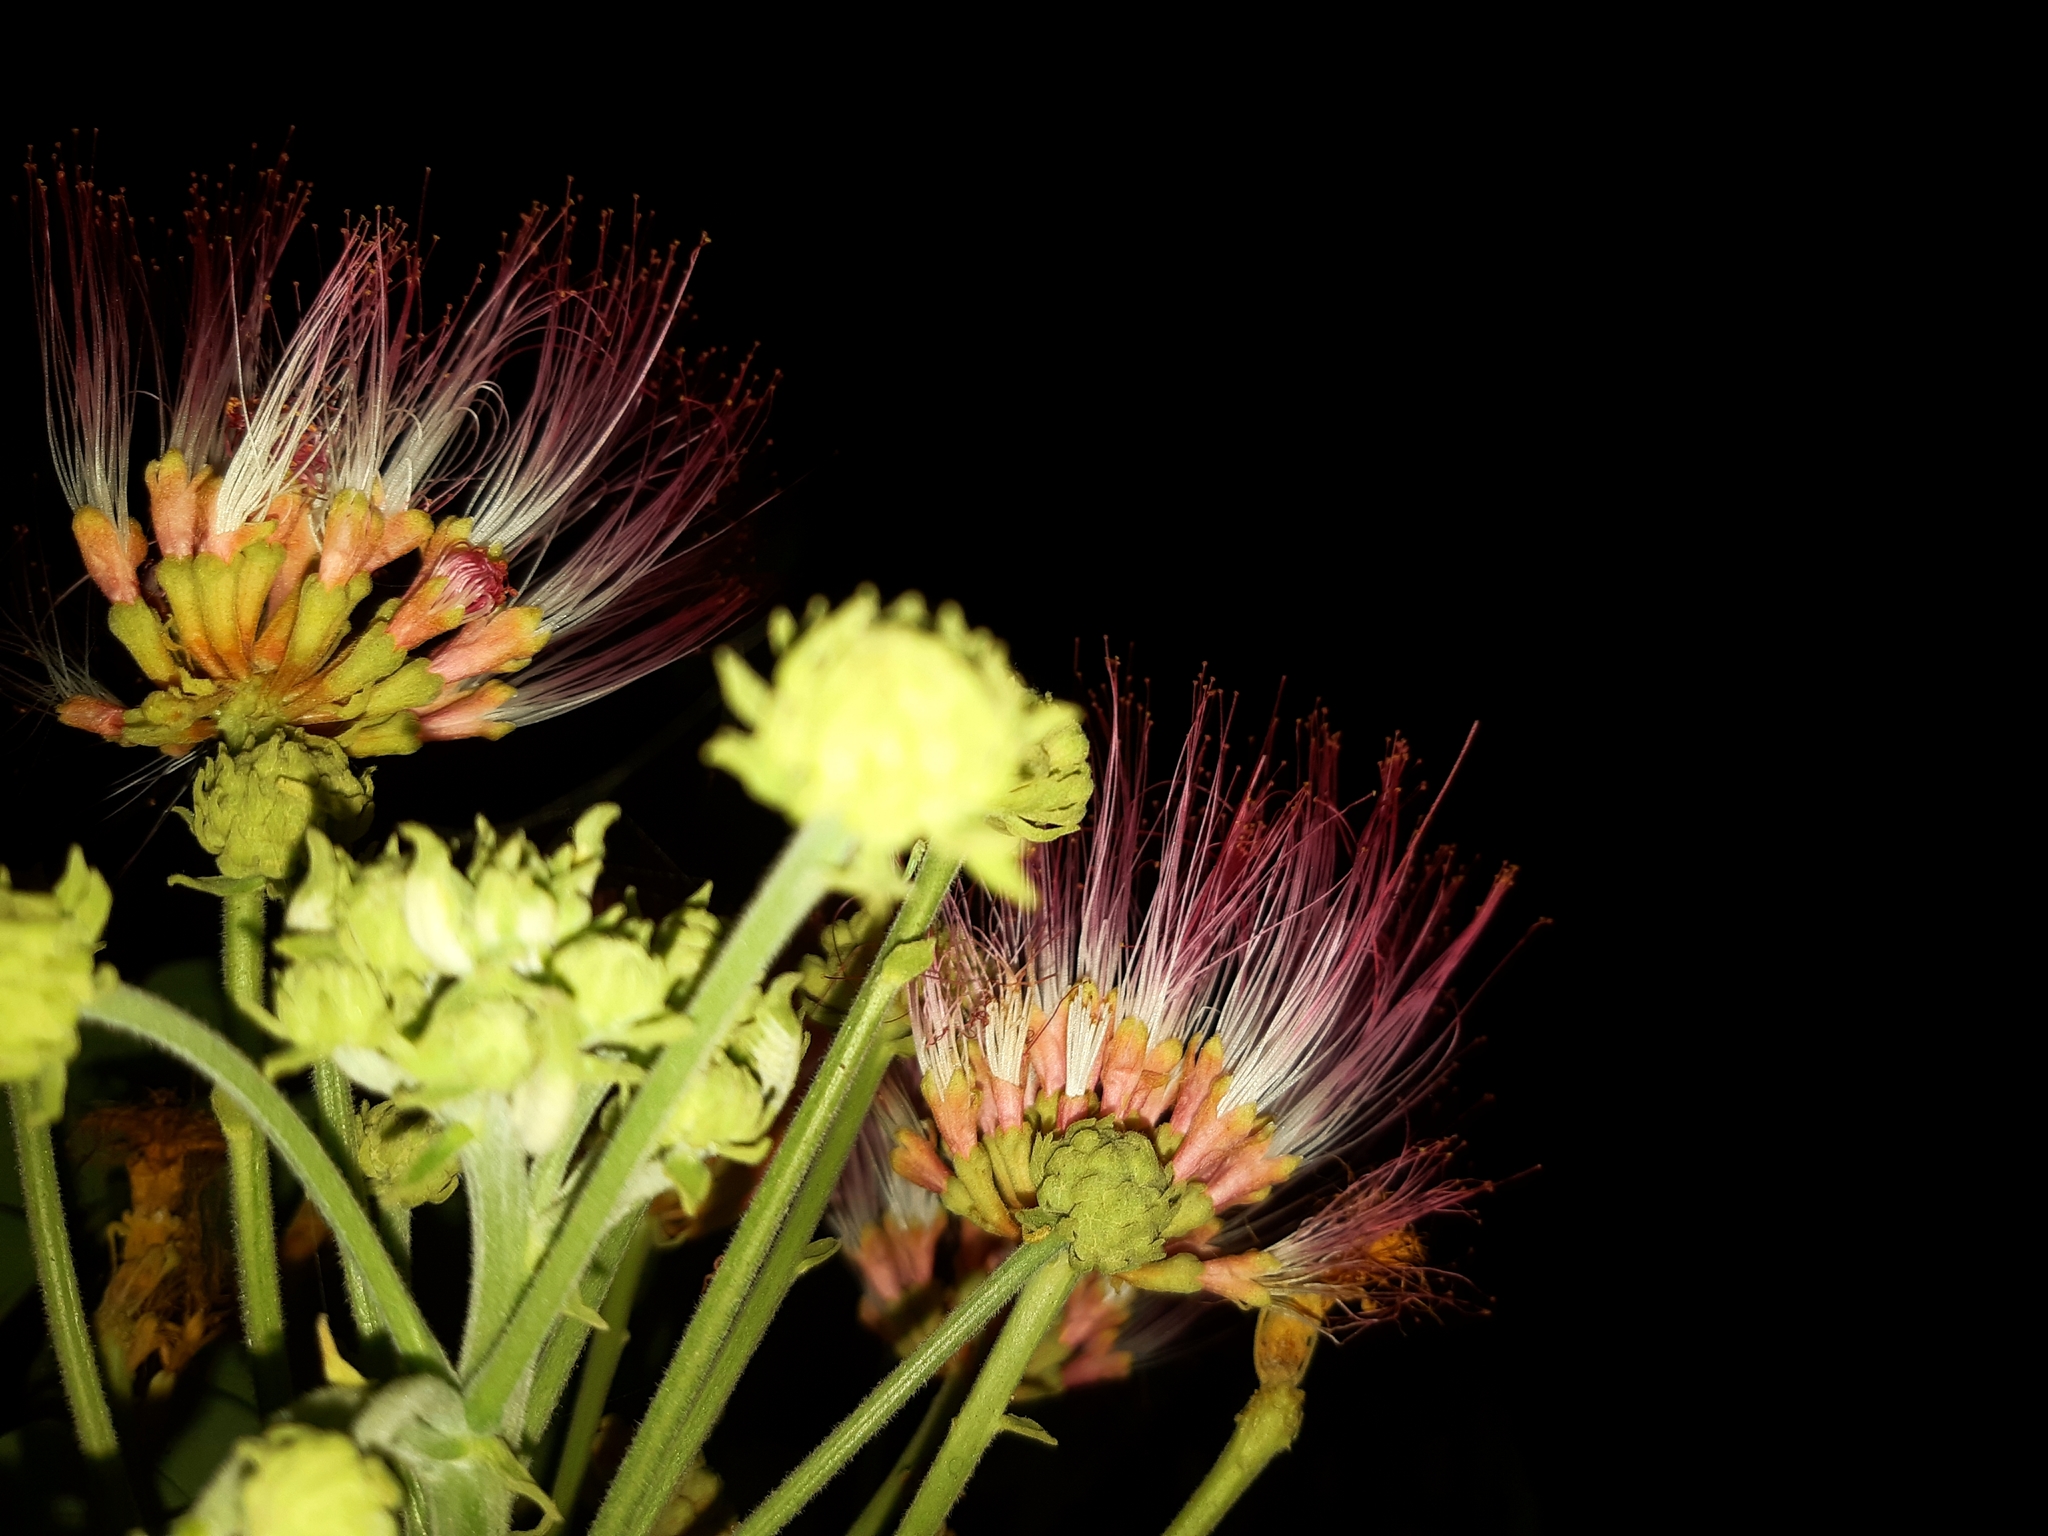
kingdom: Plantae
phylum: Tracheophyta
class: Magnoliopsida
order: Fabales
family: Fabaceae
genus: Samanea
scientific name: Samanea saman
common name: Raintree
